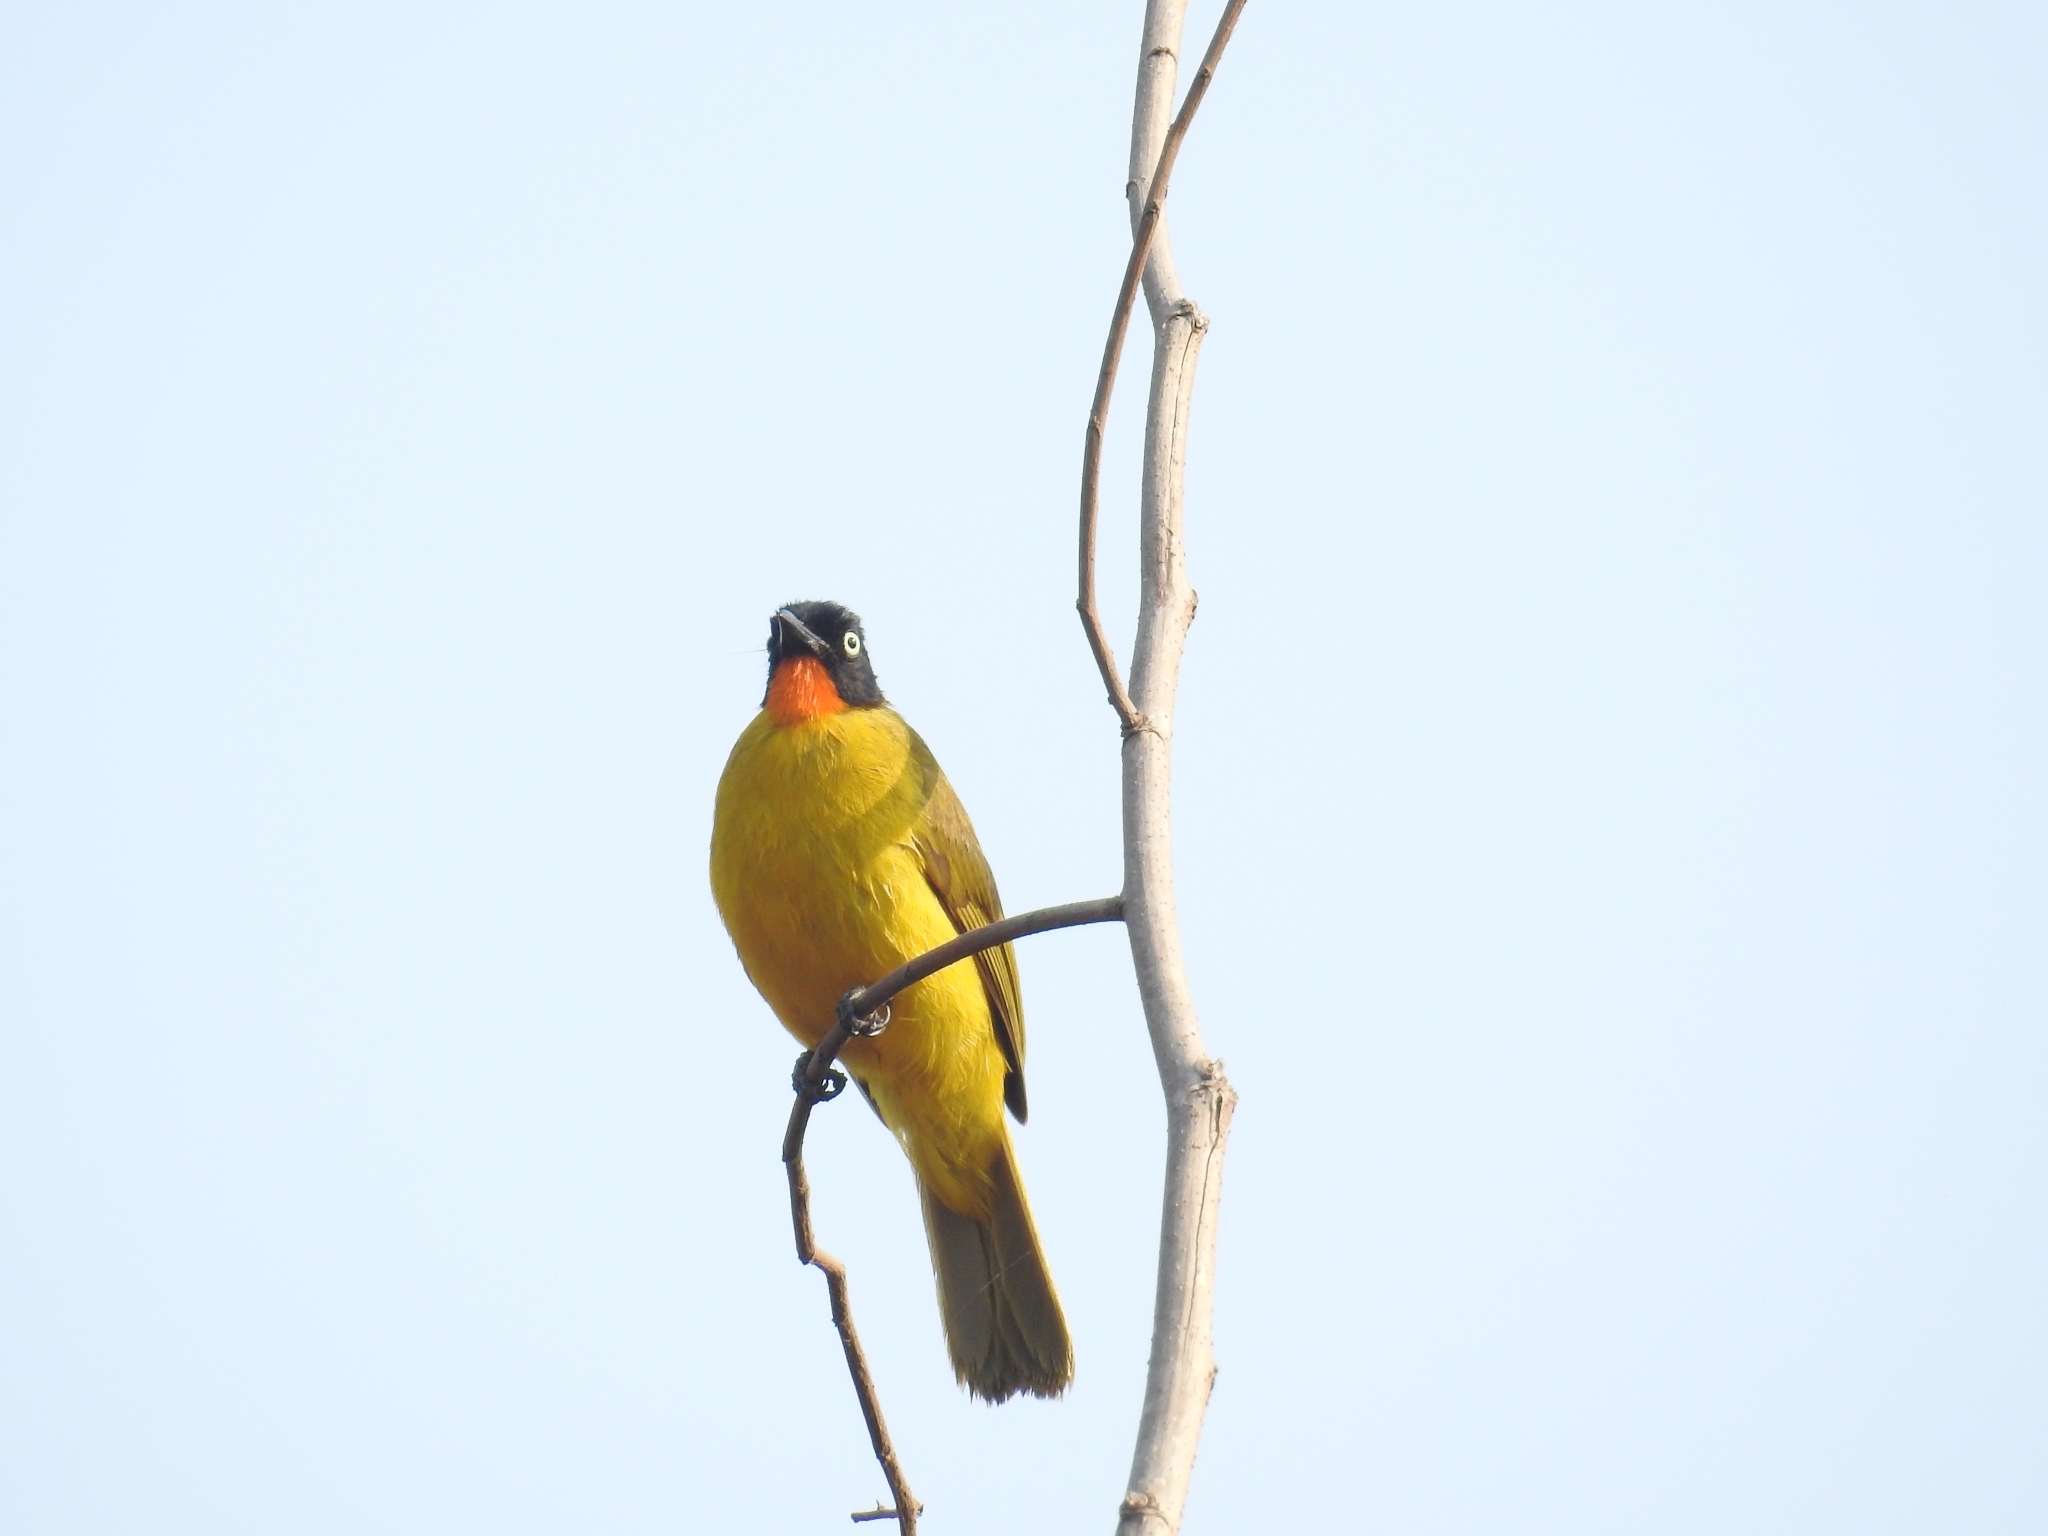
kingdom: Animalia
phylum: Chordata
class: Aves
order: Passeriformes
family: Pycnonotidae
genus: Pycnonotus
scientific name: Pycnonotus gularis
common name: Flame-throated bulbul
